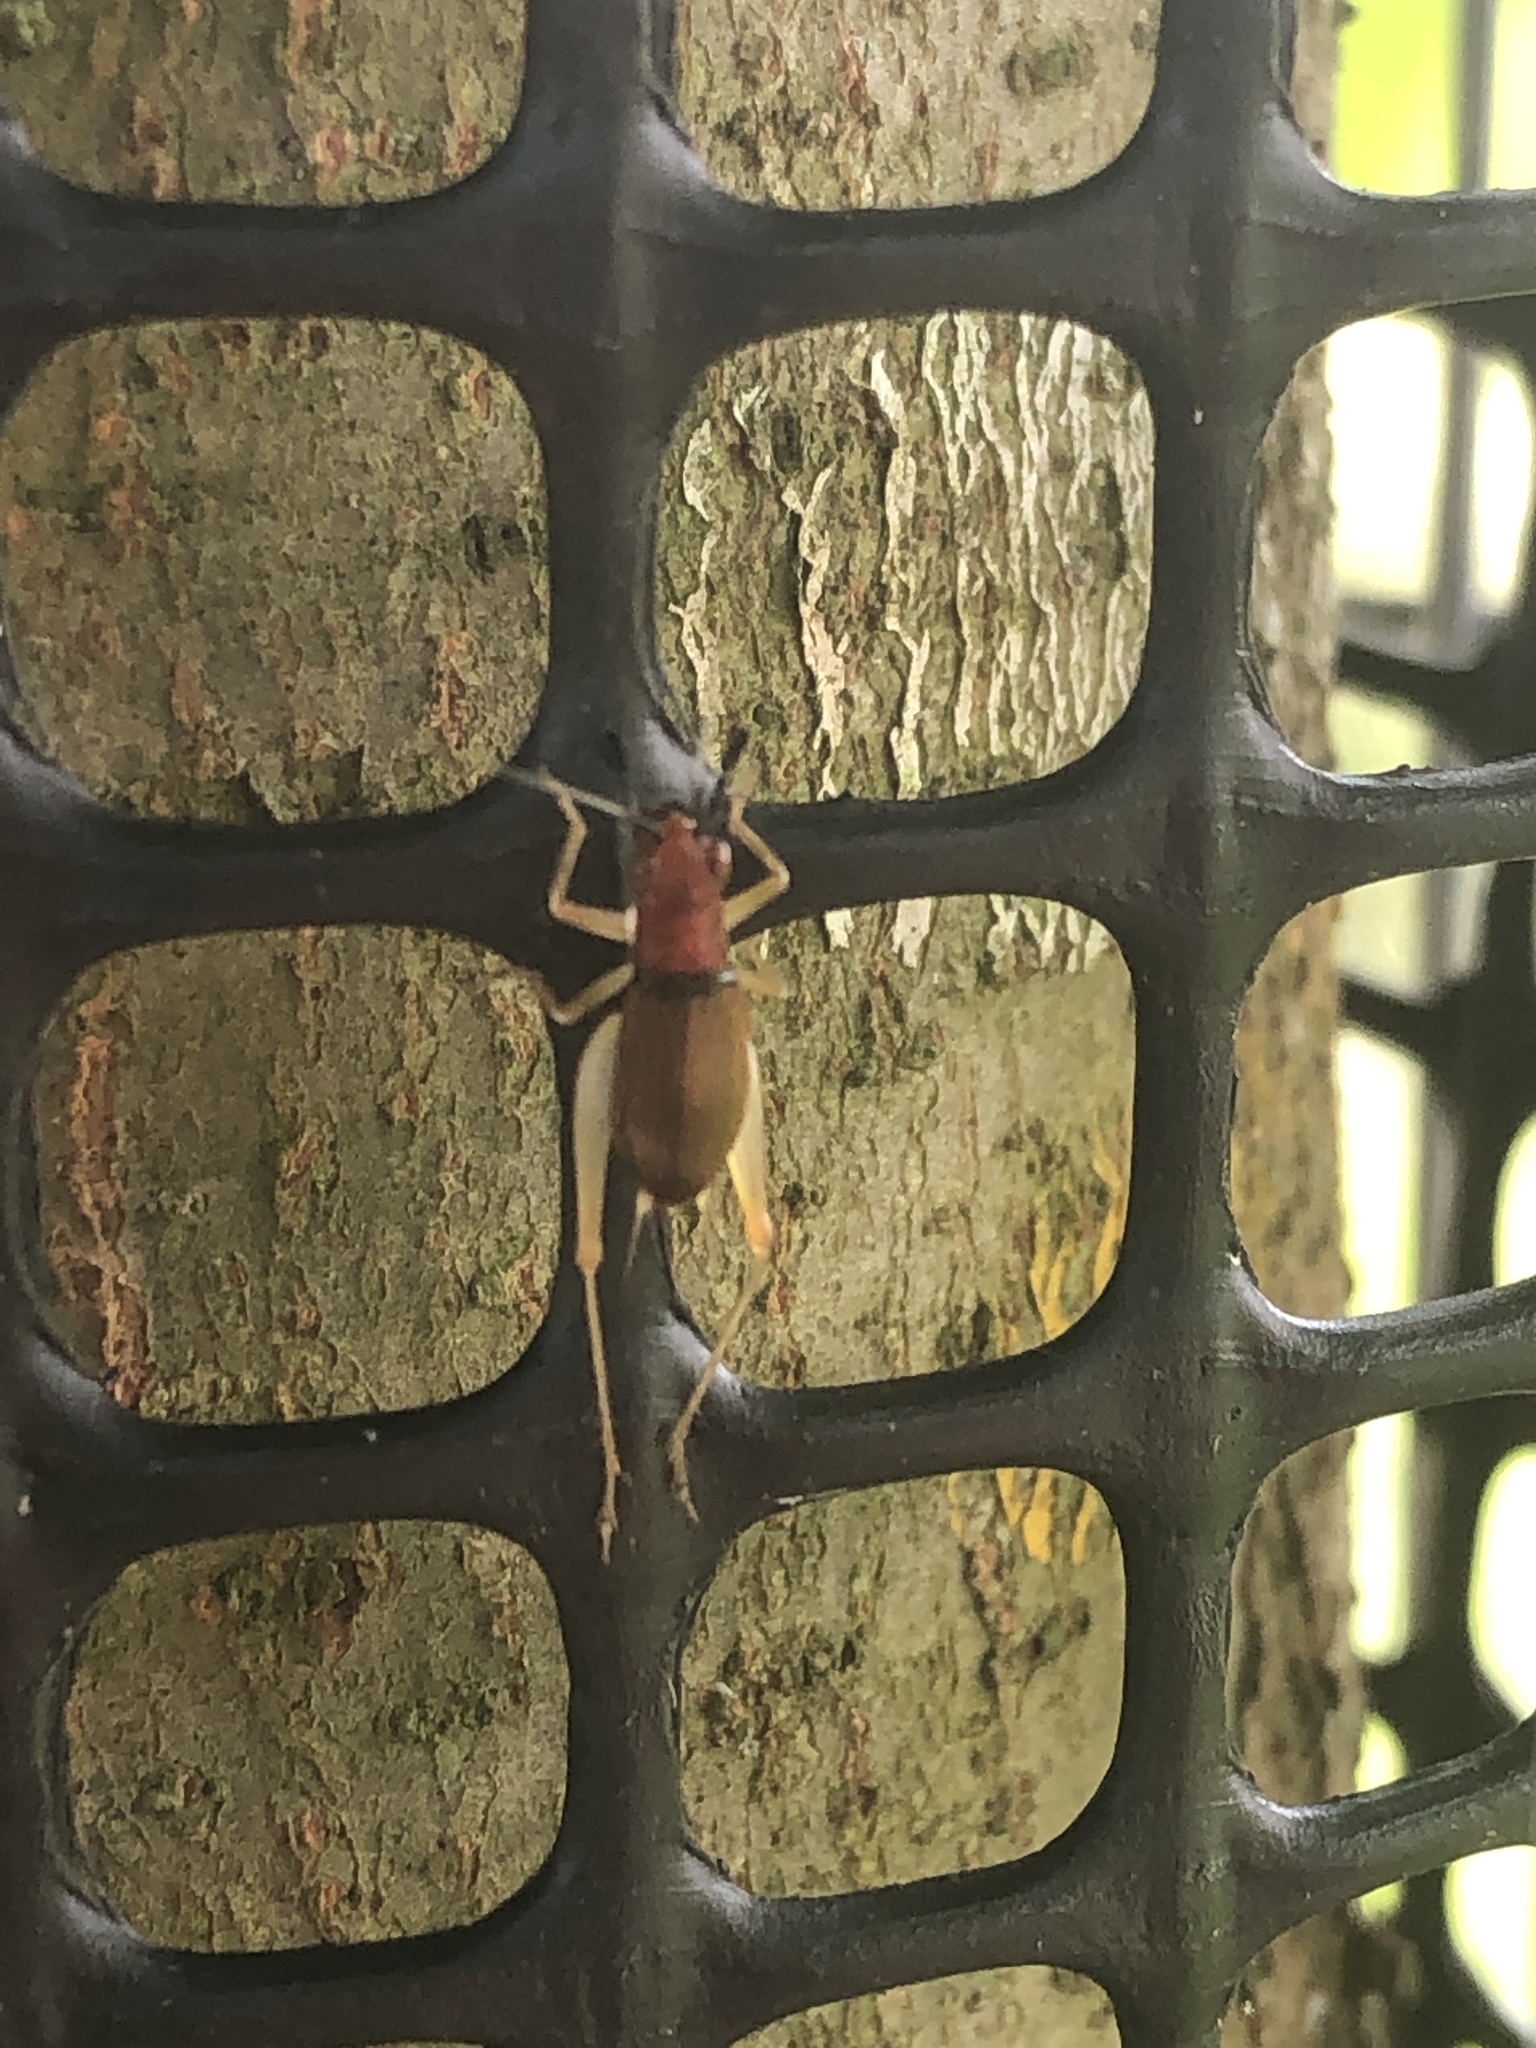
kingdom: Animalia
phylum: Arthropoda
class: Insecta
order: Orthoptera
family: Trigonidiidae
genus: Phyllopalpus
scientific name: Phyllopalpus pulchellus
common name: Handsome trig
